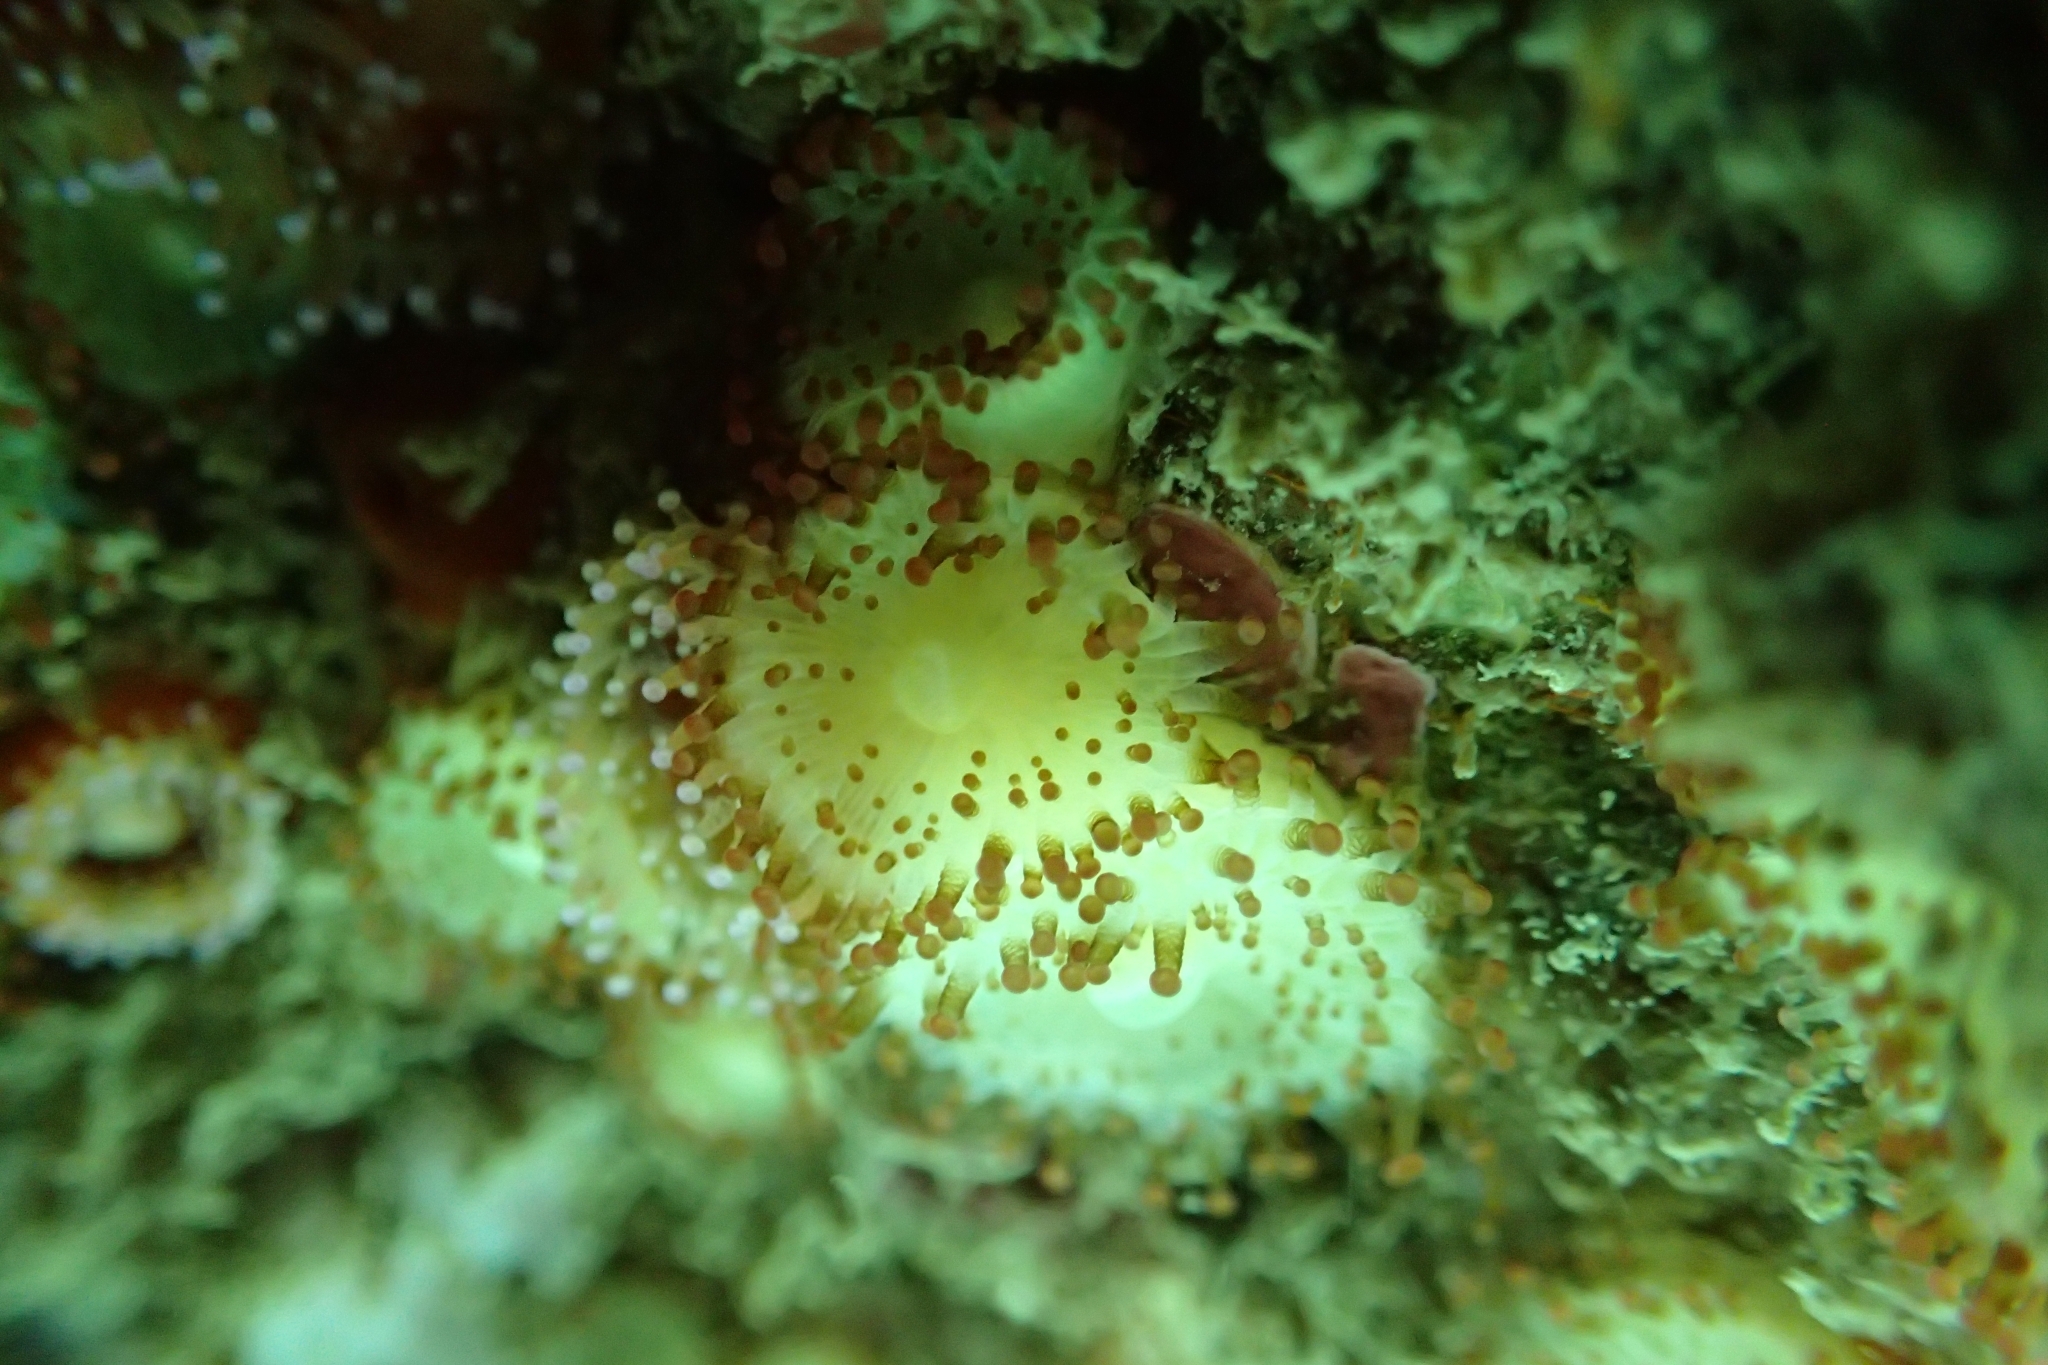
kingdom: Animalia
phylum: Cnidaria
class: Anthozoa
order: Corallimorpharia
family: Corallimorphidae
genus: Corynactis
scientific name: Corynactis australis
